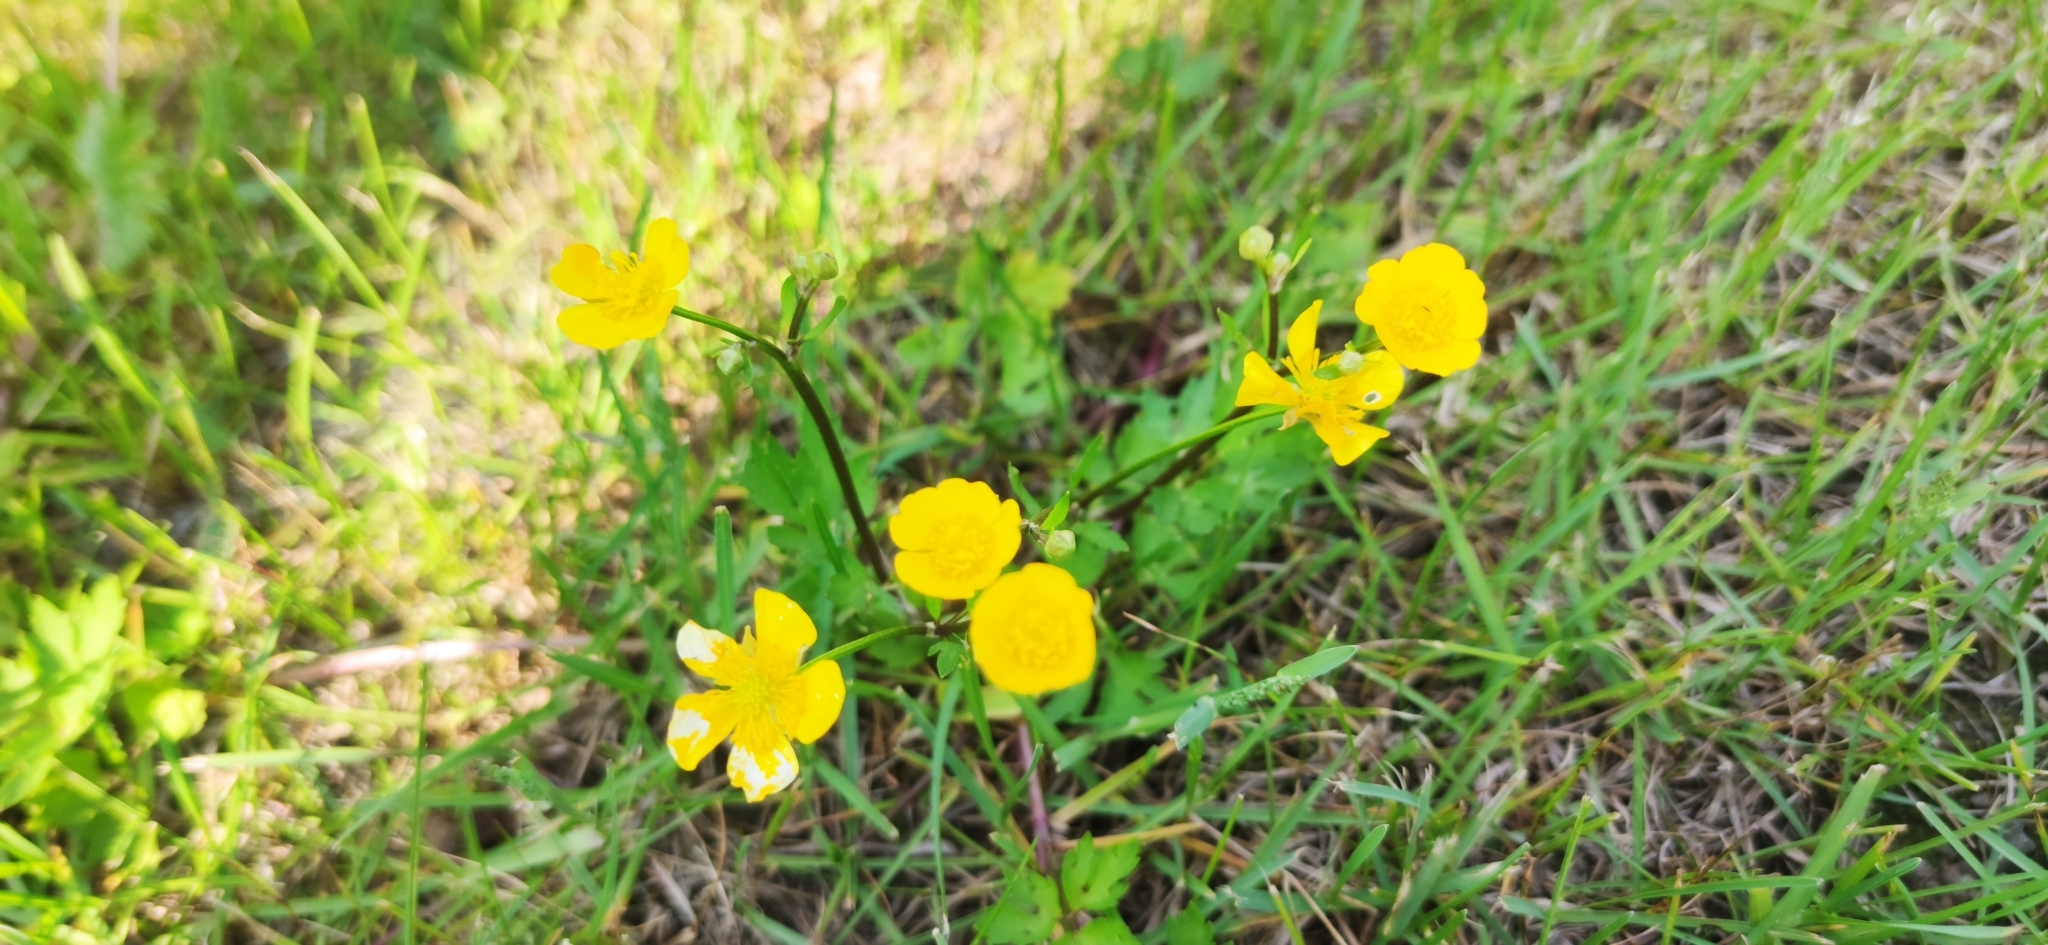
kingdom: Plantae
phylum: Tracheophyta
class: Magnoliopsida
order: Ranunculales
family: Ranunculaceae
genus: Ranunculus
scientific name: Ranunculus repens
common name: Creeping buttercup
